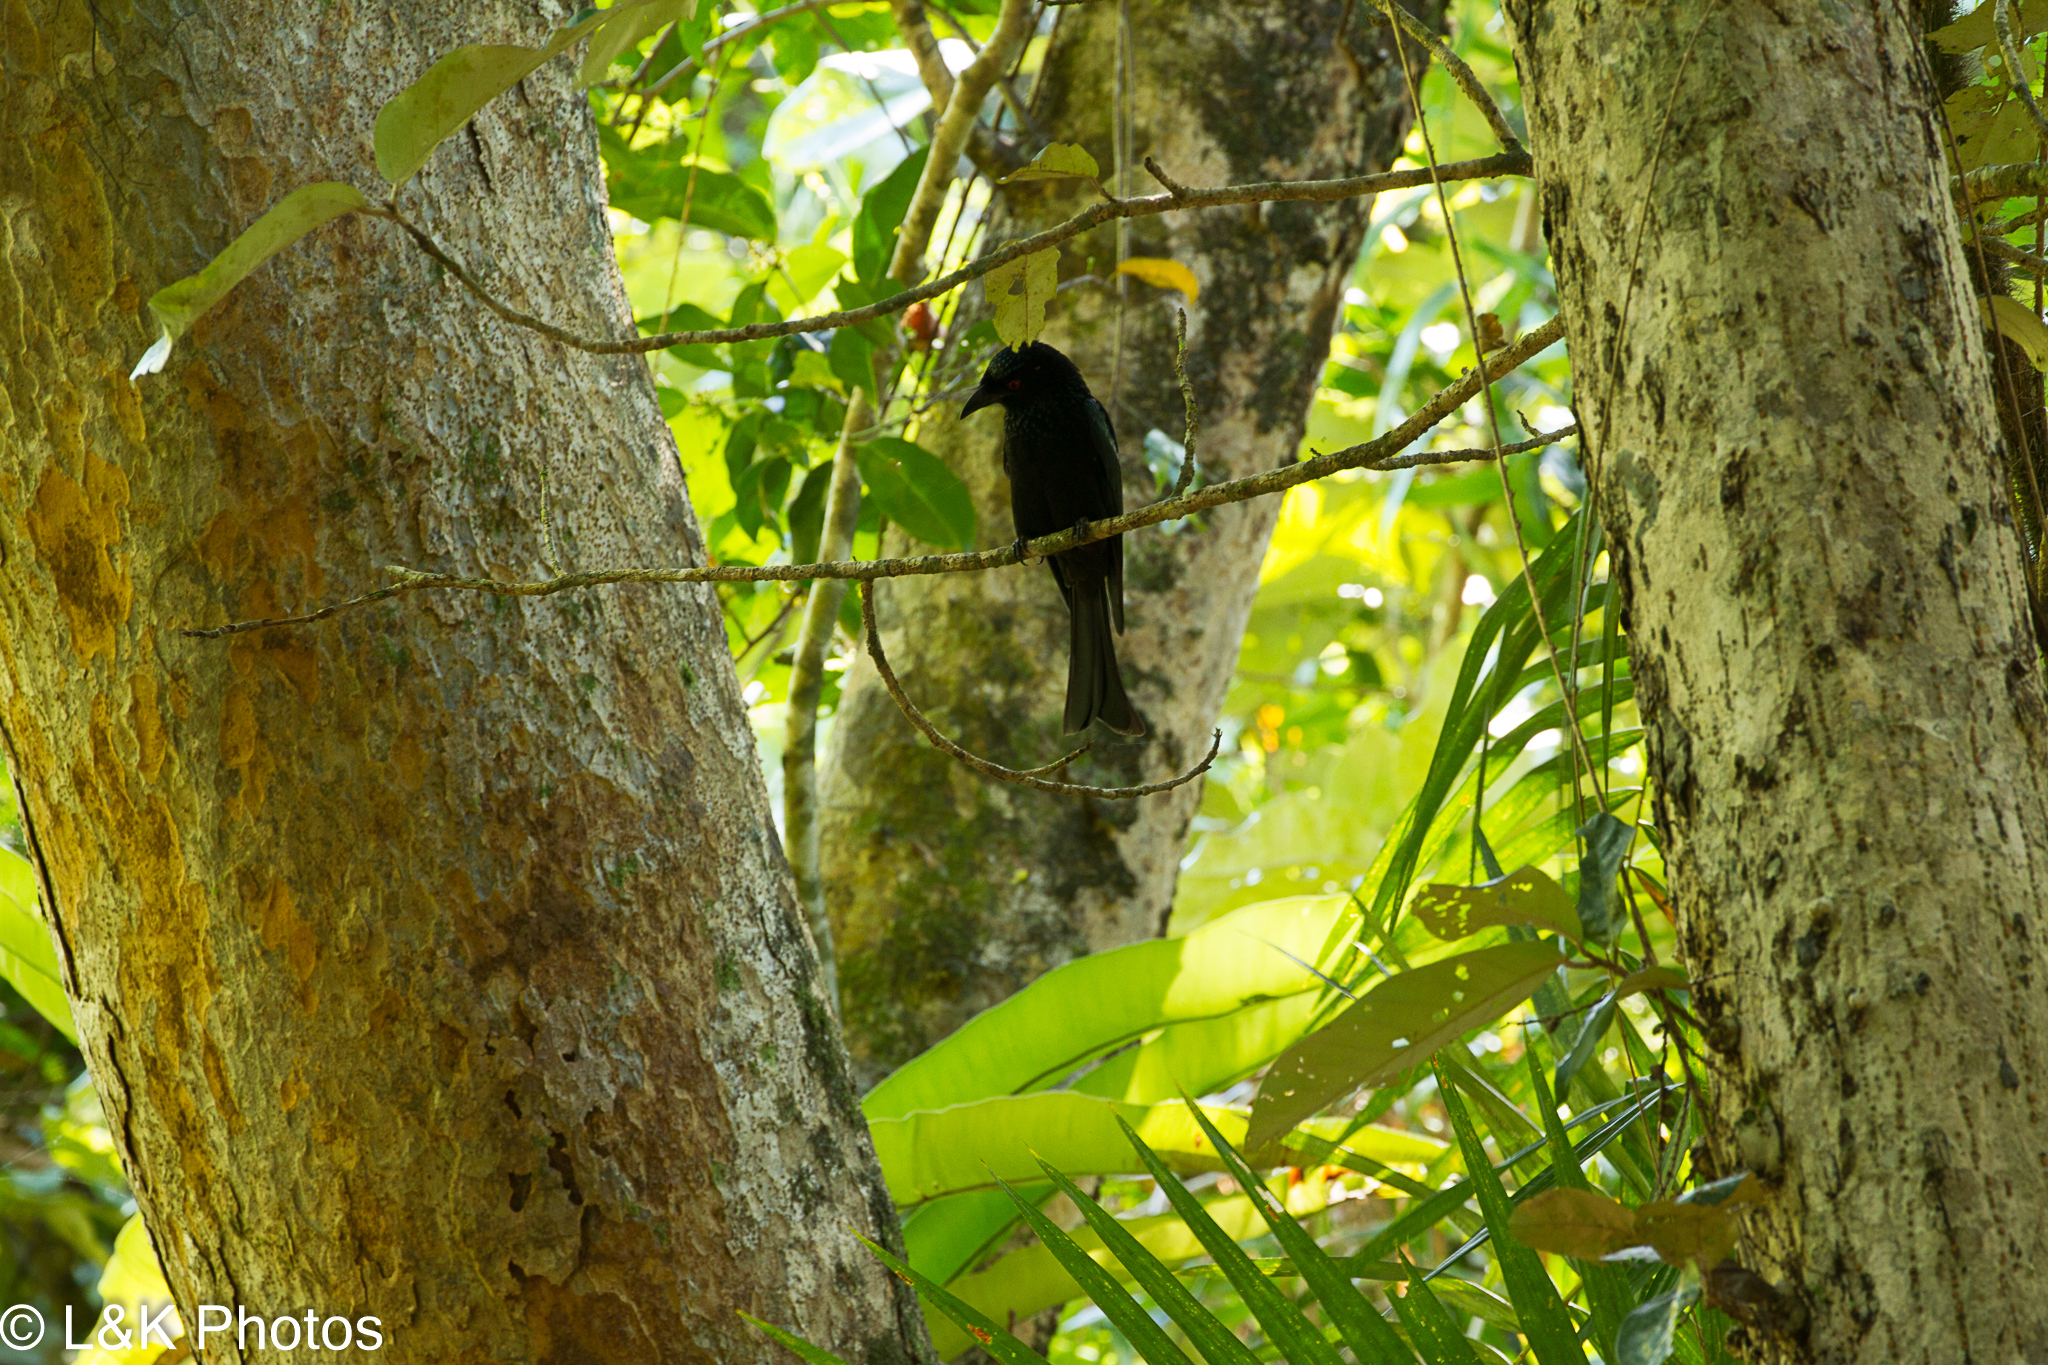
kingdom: Animalia
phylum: Chordata
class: Aves
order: Passeriformes
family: Dicruridae
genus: Dicrurus
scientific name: Dicrurus bracteatus
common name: Spangled drongo
